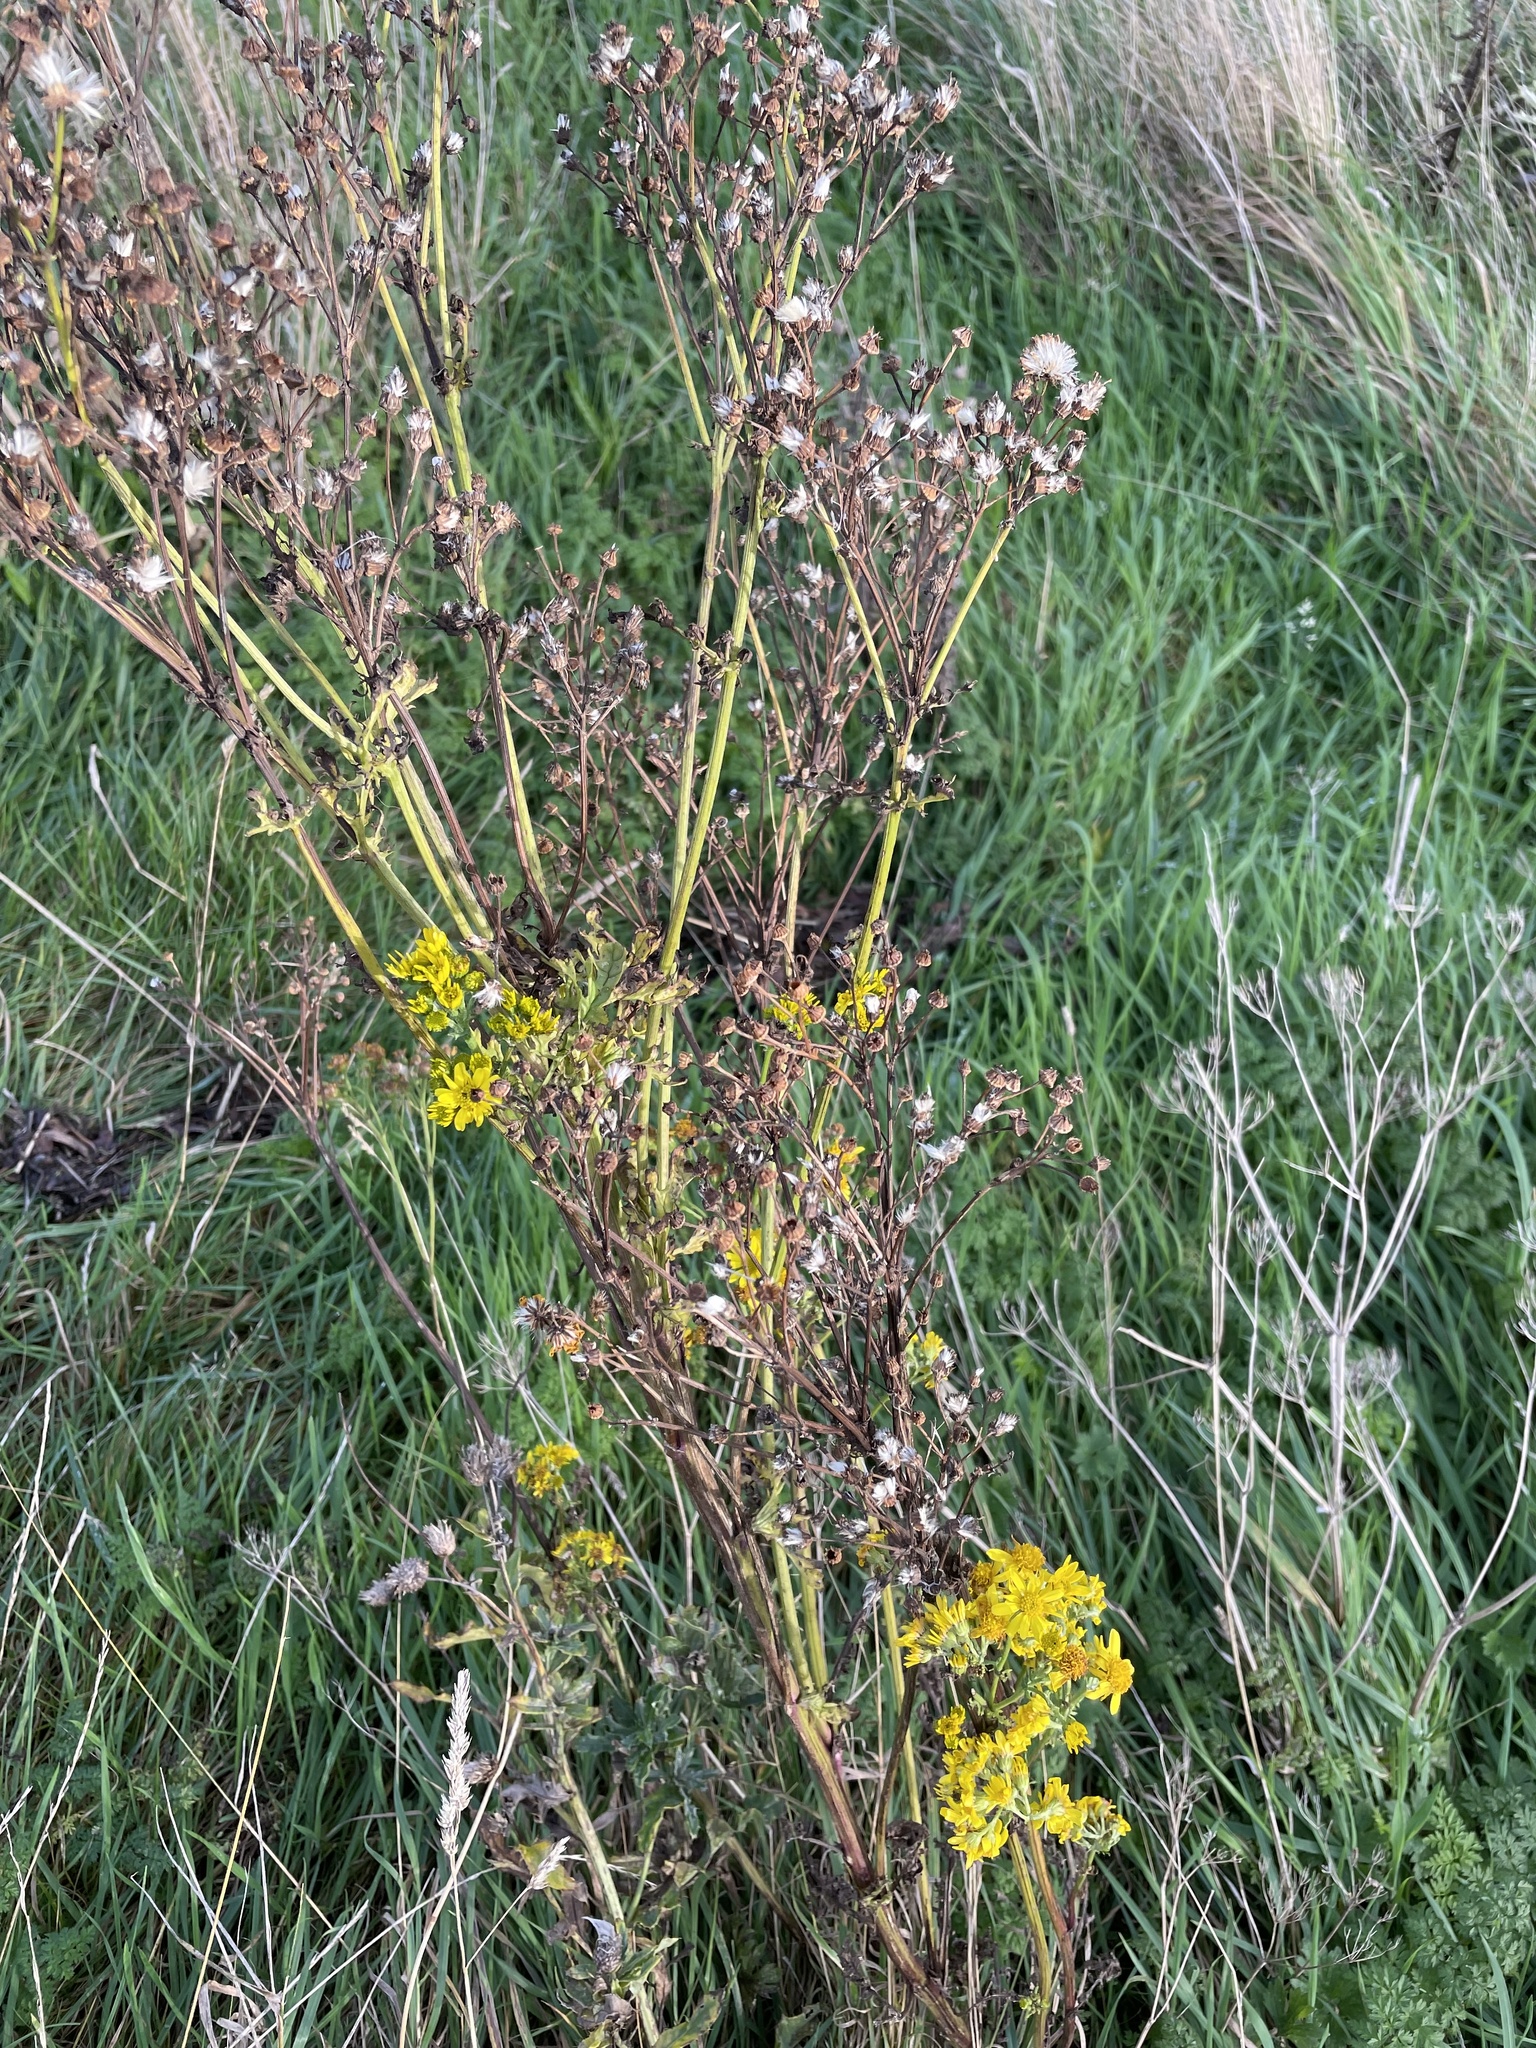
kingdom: Plantae
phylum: Tracheophyta
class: Magnoliopsida
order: Asterales
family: Asteraceae
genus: Jacobaea
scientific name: Jacobaea vulgaris
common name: Stinking willie
